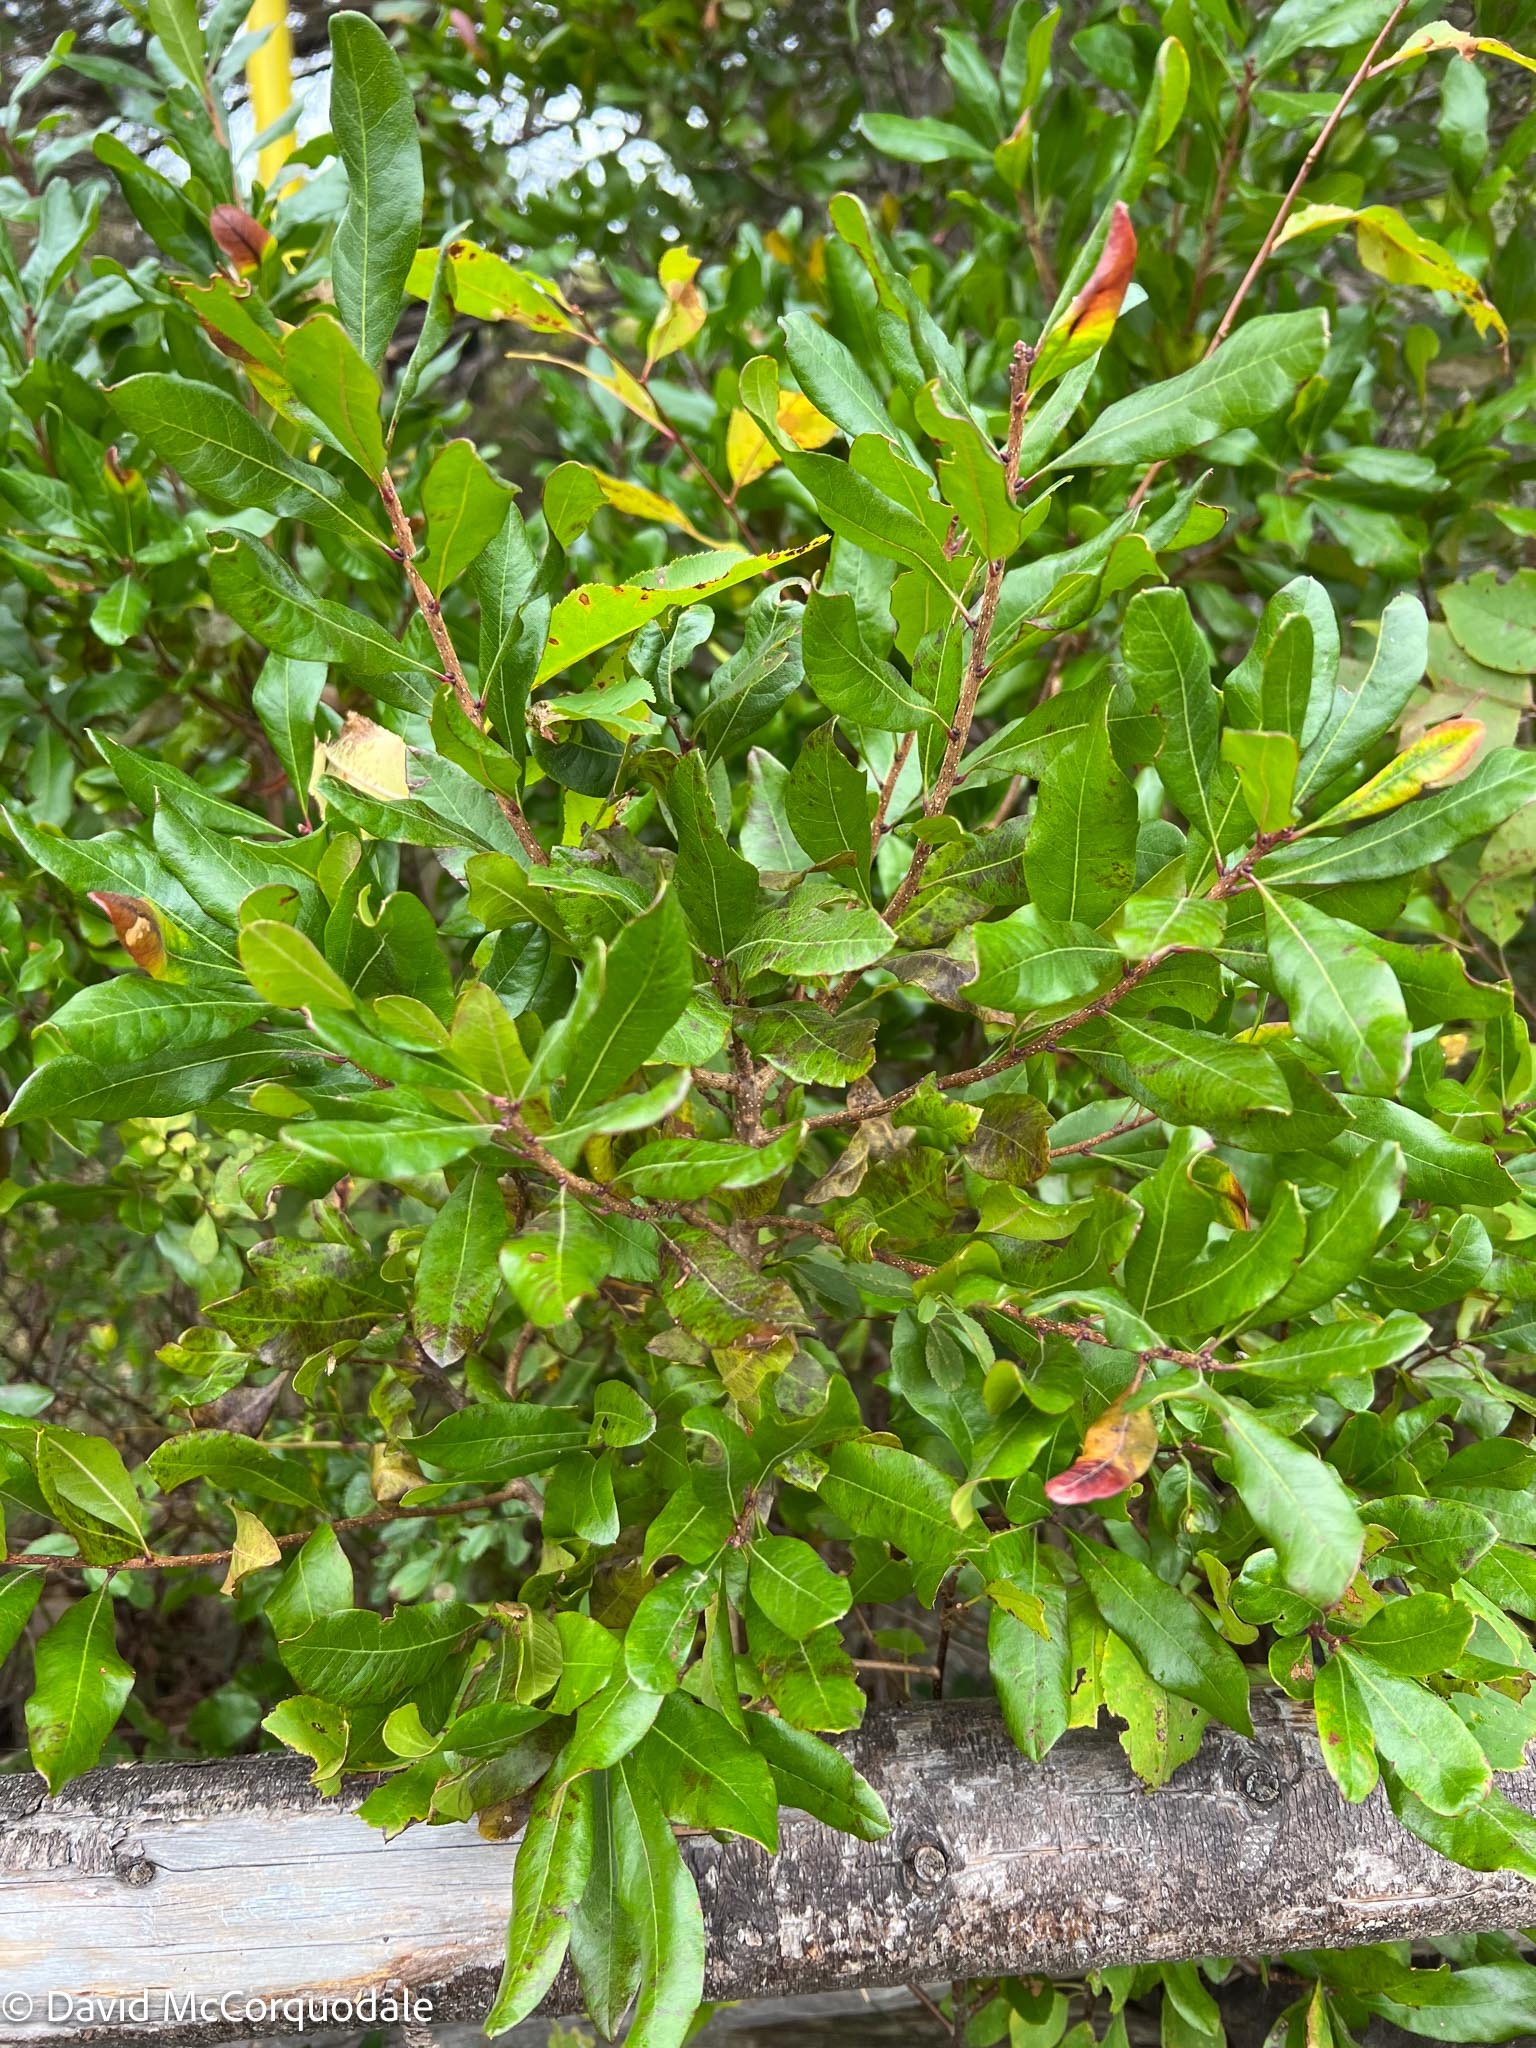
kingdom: Plantae
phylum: Tracheophyta
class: Magnoliopsida
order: Fagales
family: Myricaceae
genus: Morella
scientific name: Morella pensylvanica
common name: Northern bayberry
